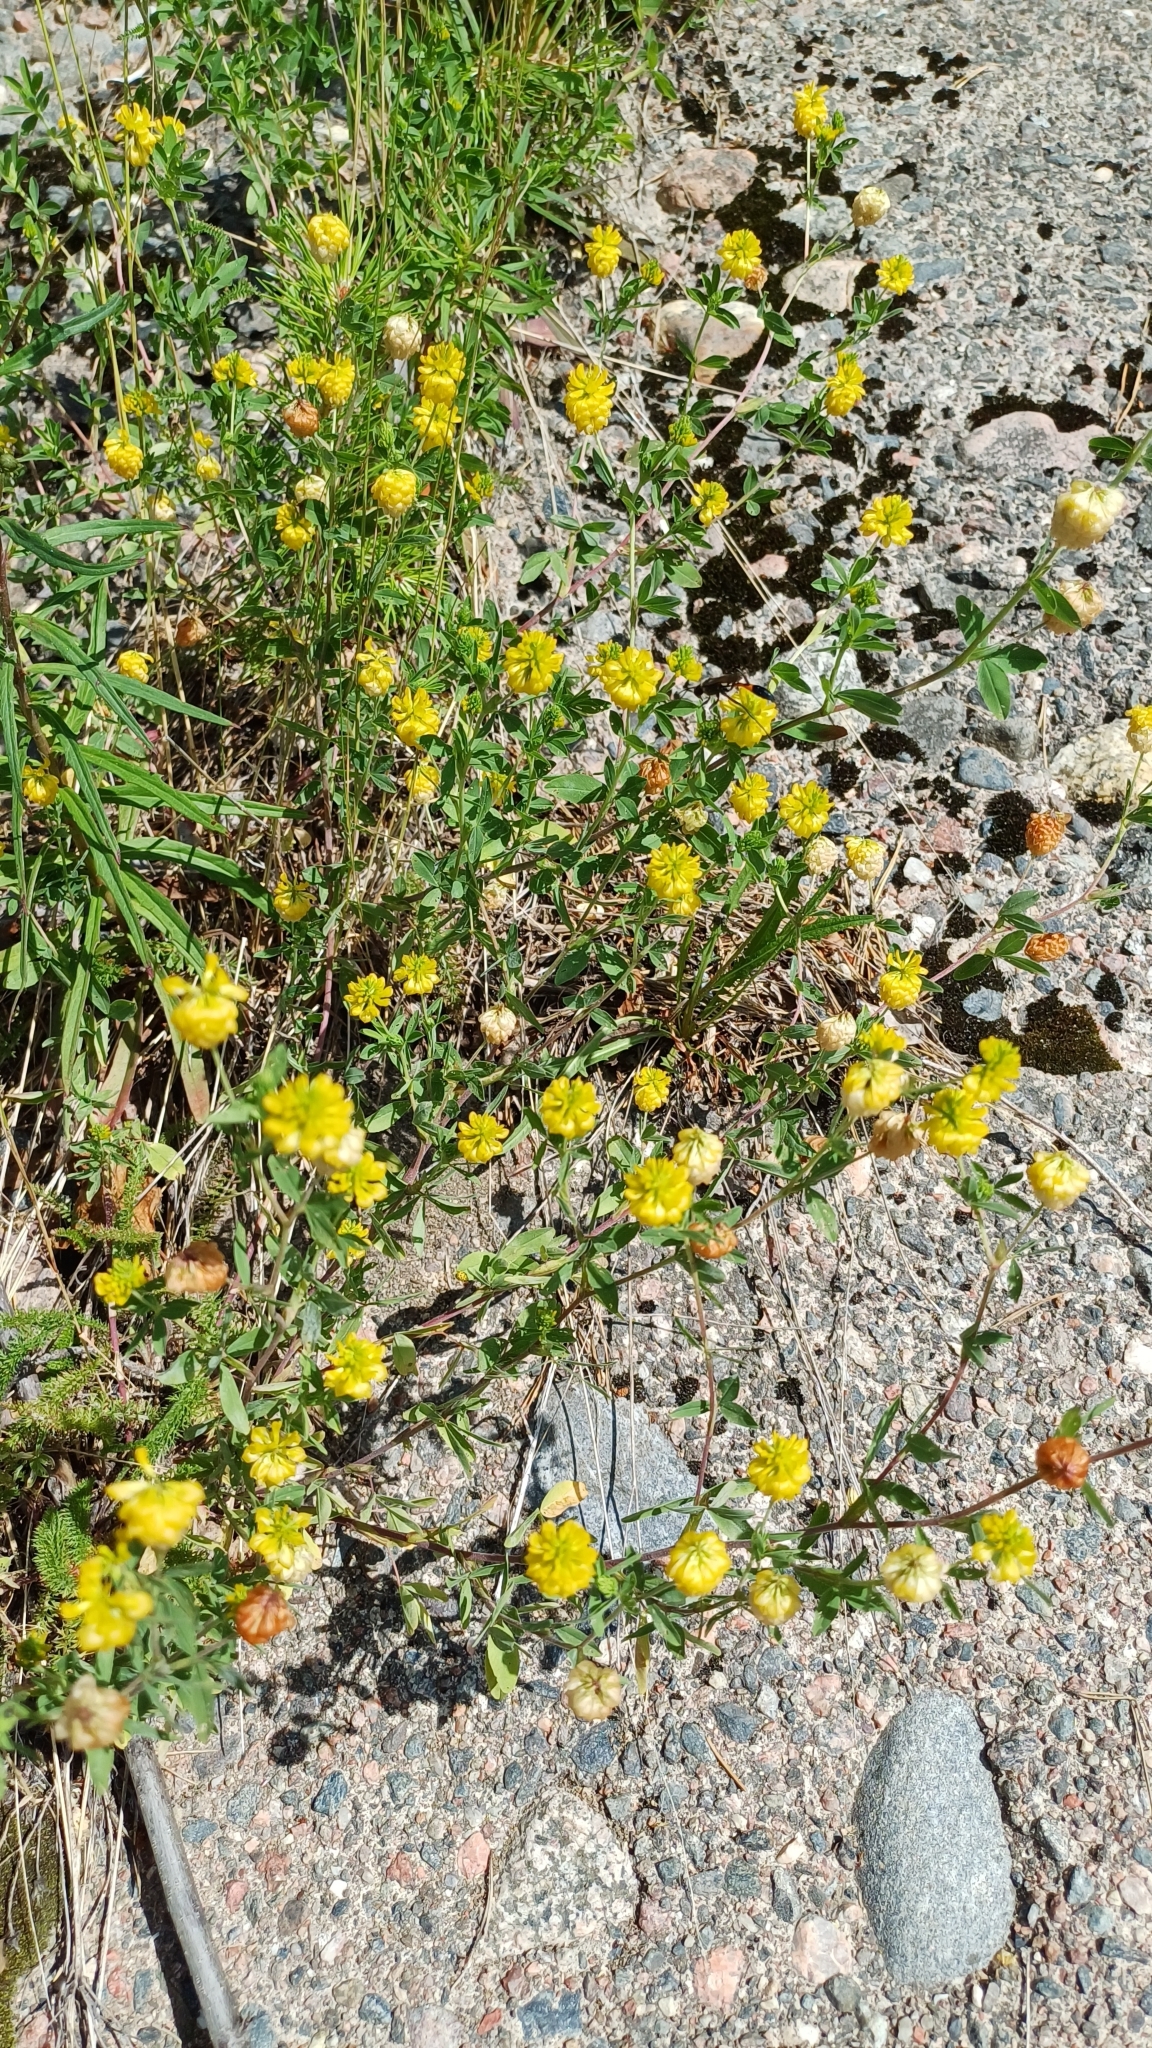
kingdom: Plantae
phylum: Tracheophyta
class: Magnoliopsida
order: Fabales
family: Fabaceae
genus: Trifolium
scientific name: Trifolium aureum
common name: Golden clover
